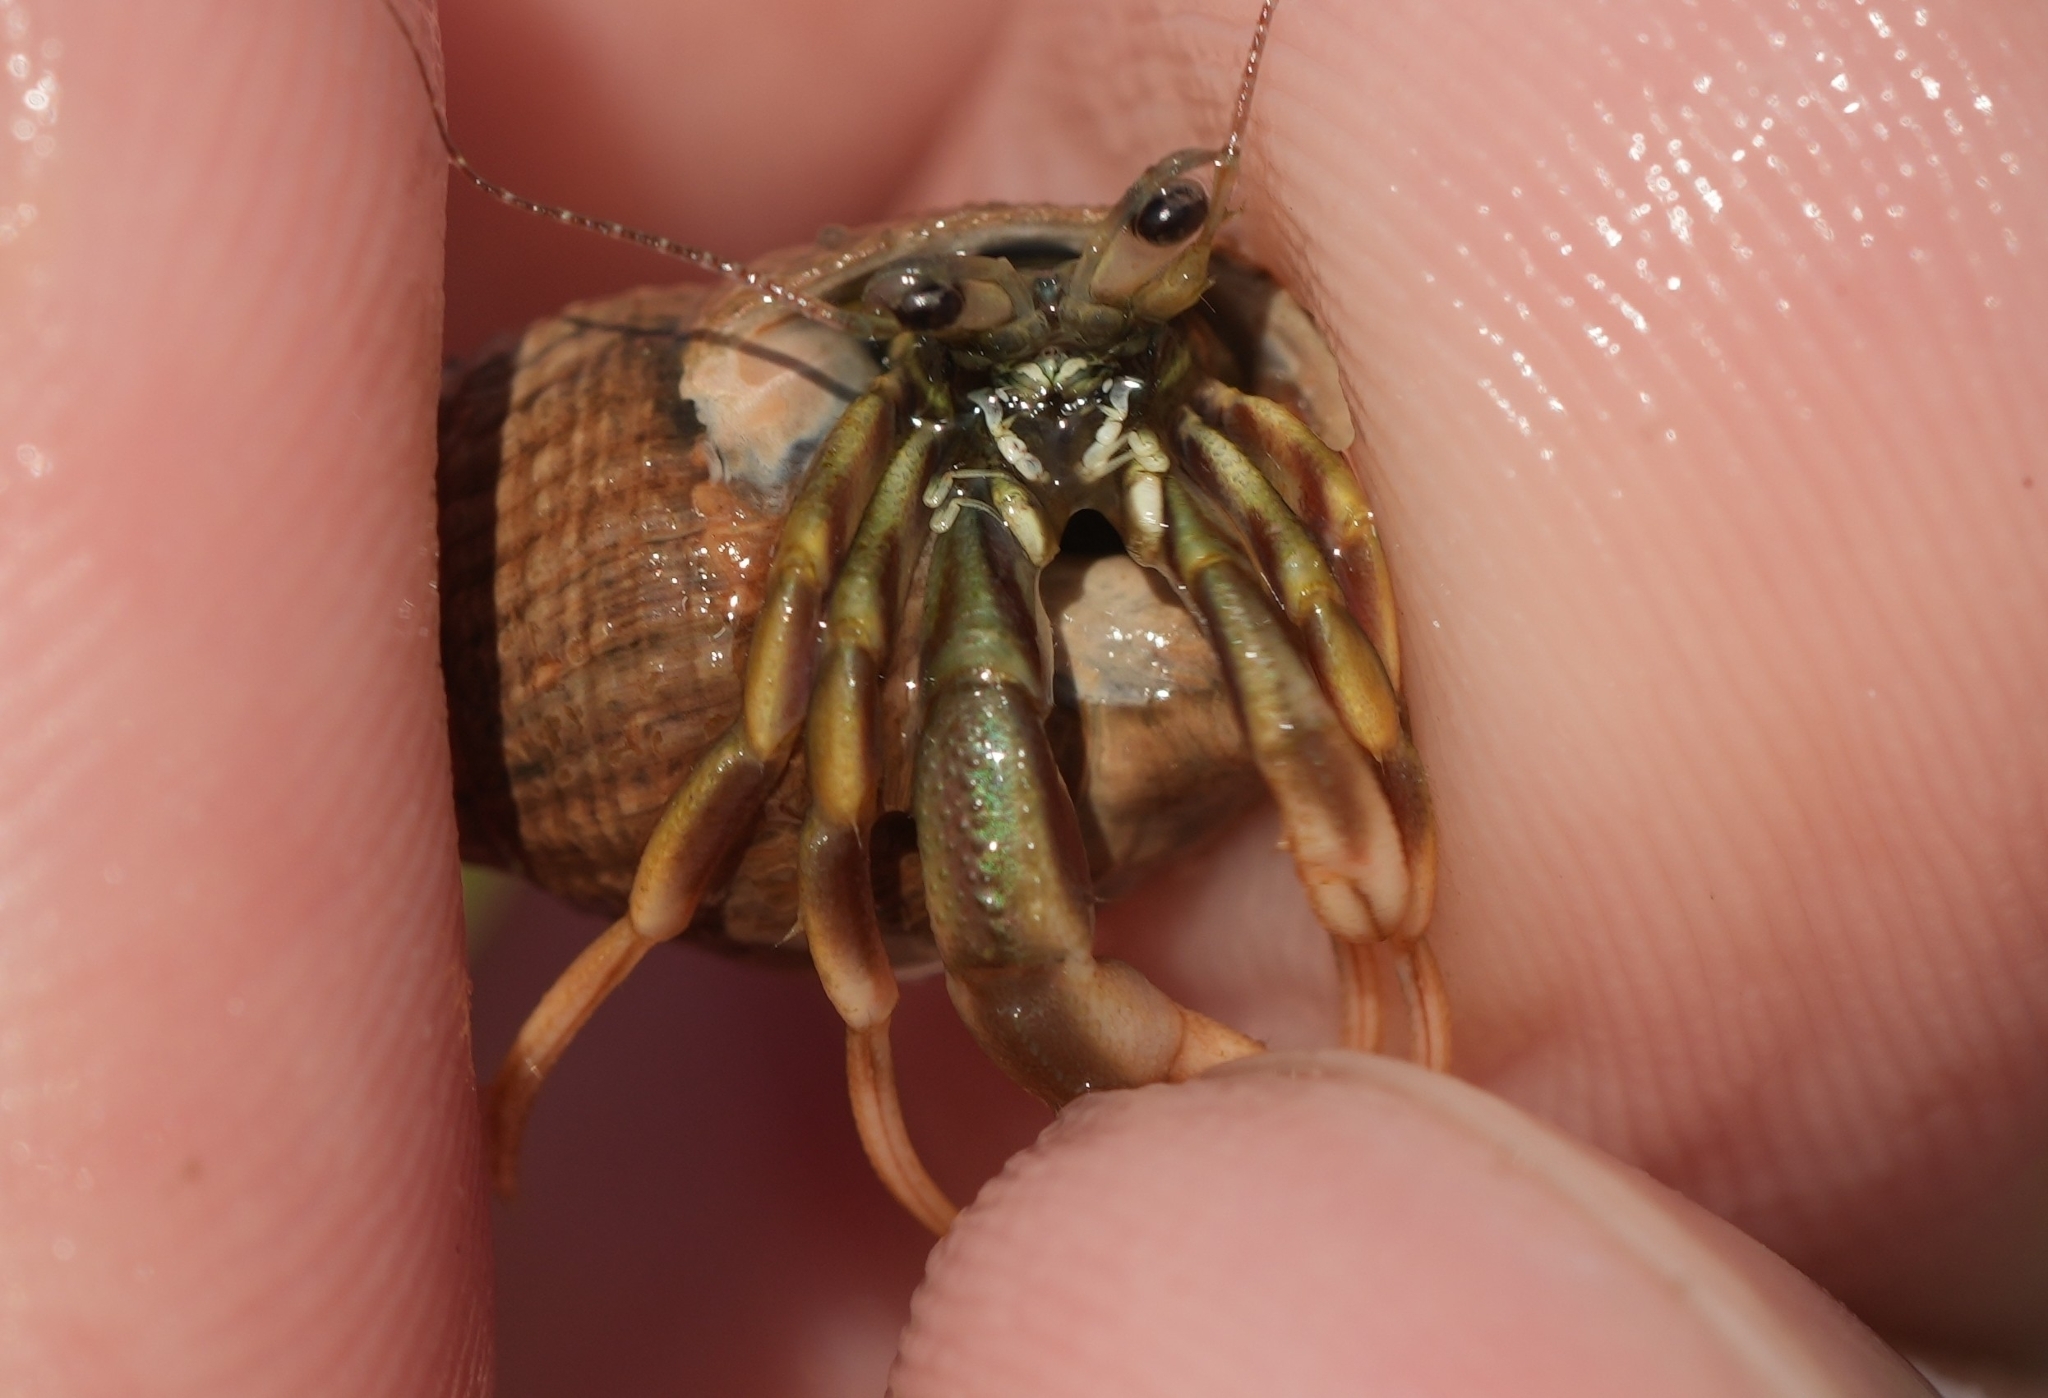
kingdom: Animalia
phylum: Arthropoda
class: Malacostraca
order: Decapoda
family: Paguridae
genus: Pagurus
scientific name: Pagurus longicarpus
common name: Long-armed hermit crab
